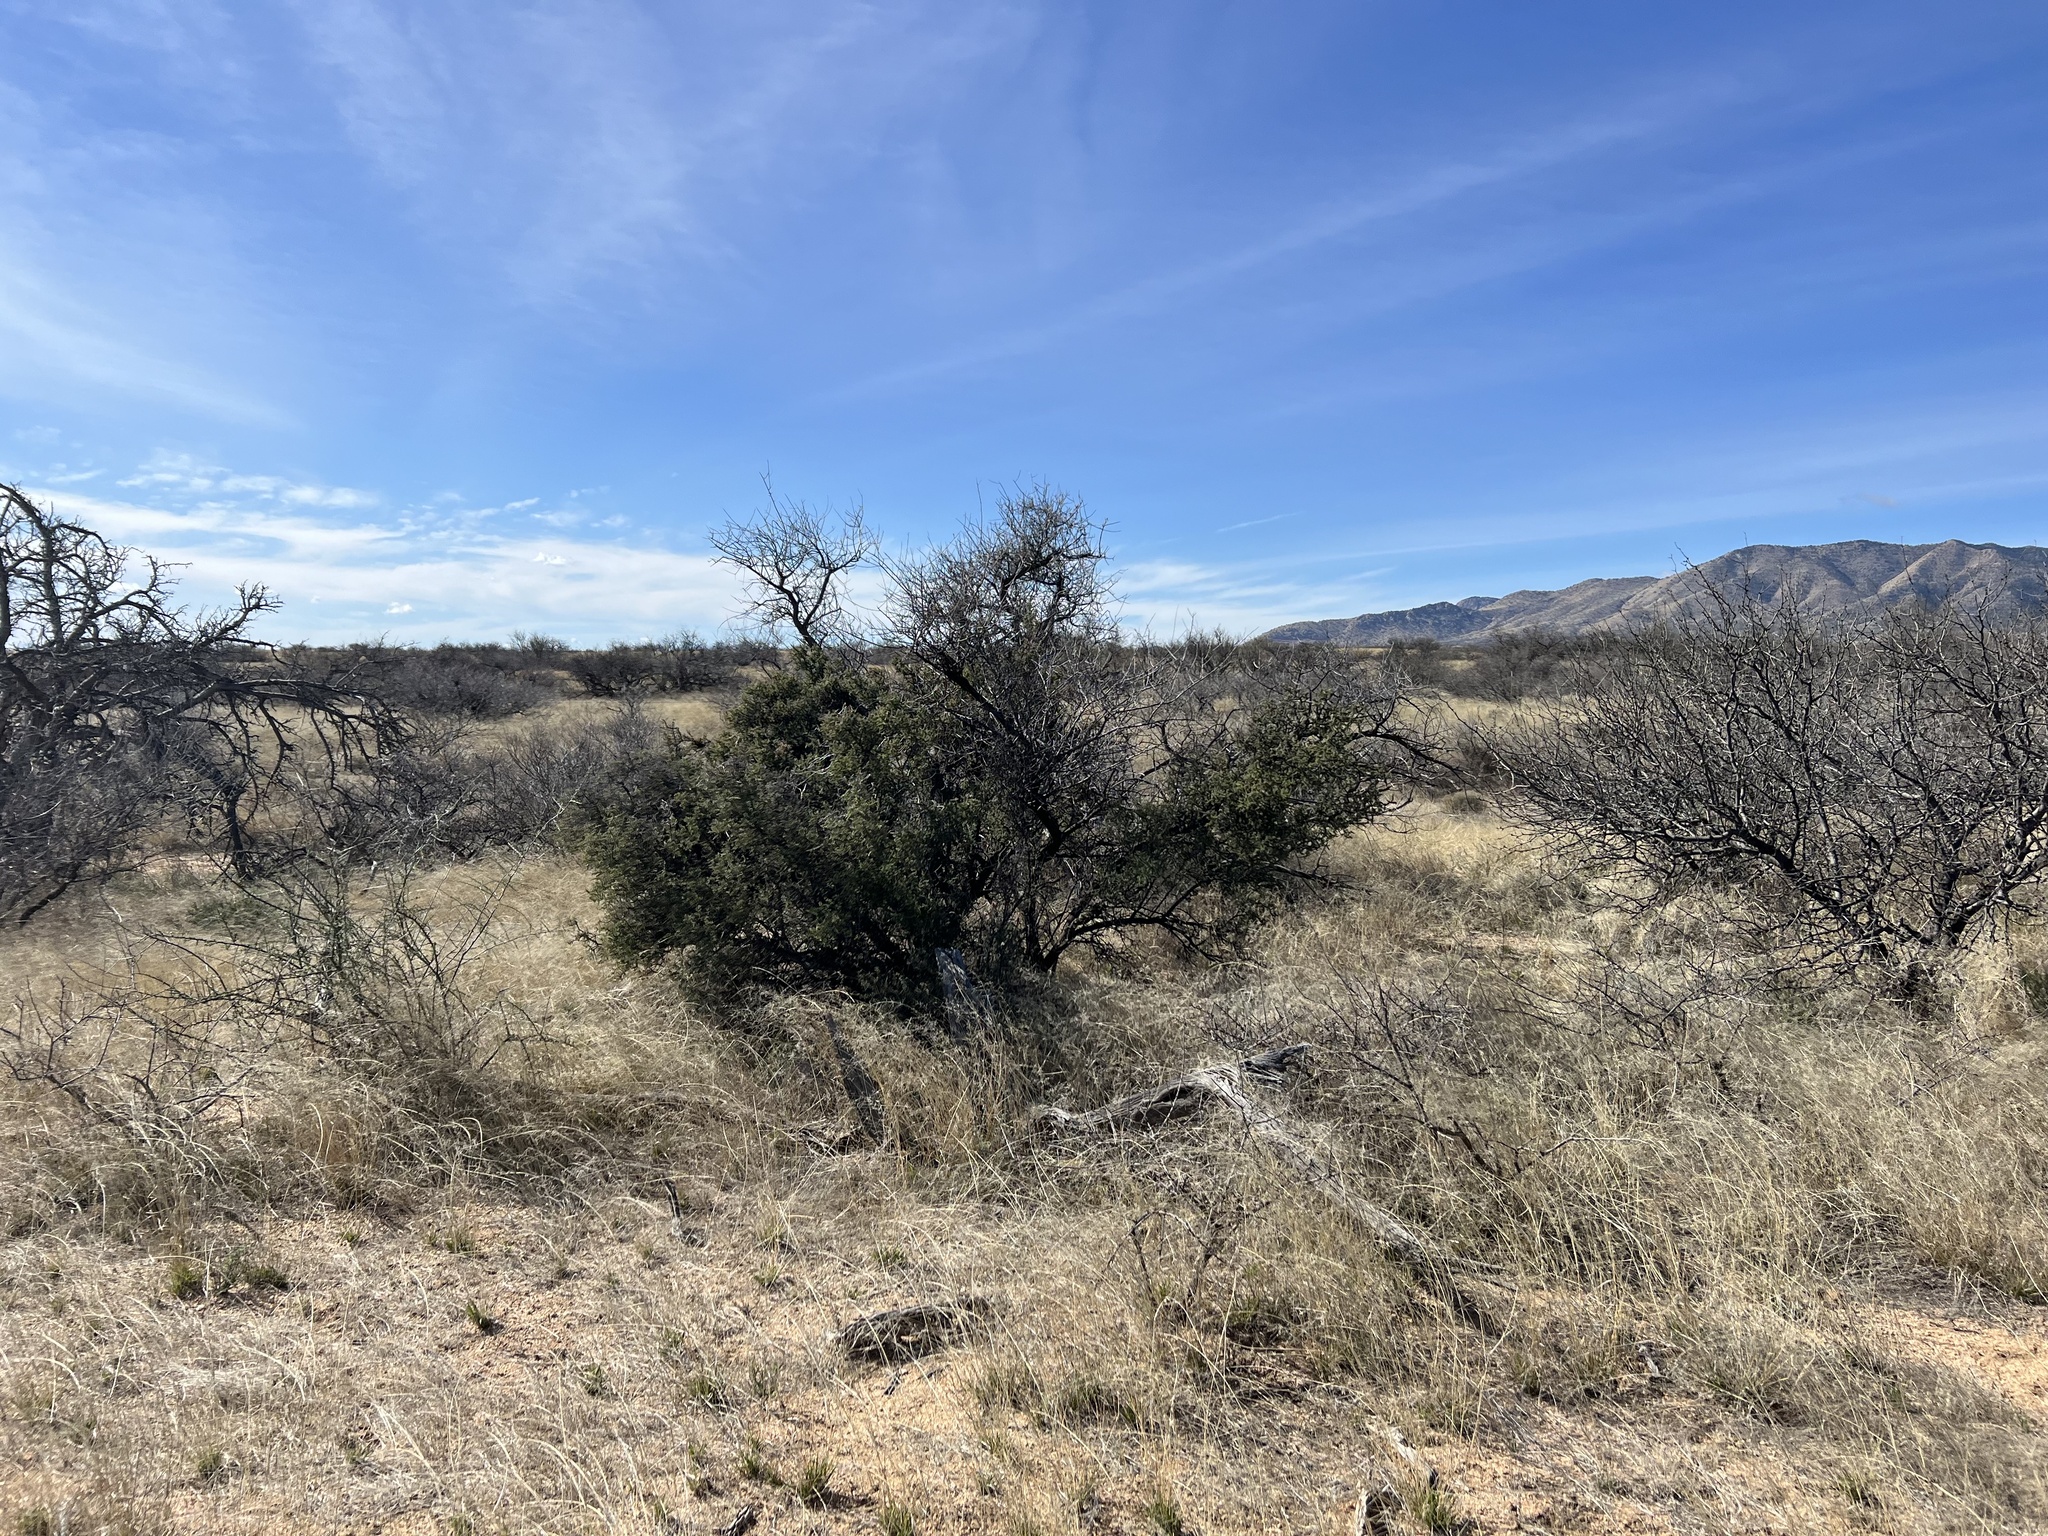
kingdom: Plantae
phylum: Tracheophyta
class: Magnoliopsida
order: Rosales
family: Rhamnaceae
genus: Condalia
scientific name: Condalia warnockii
